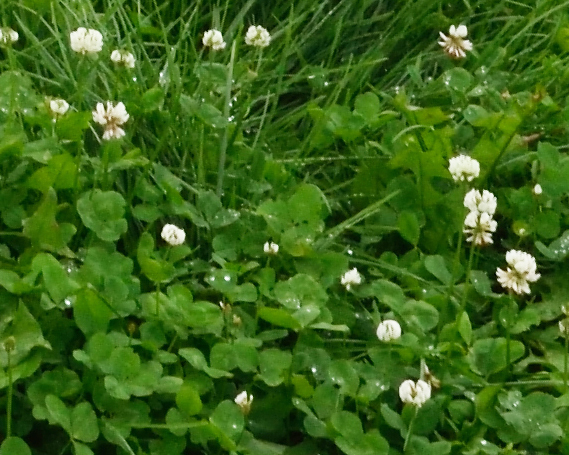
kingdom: Plantae
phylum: Tracheophyta
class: Magnoliopsida
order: Fabales
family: Fabaceae
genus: Trifolium
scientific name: Trifolium repens
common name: White clover
